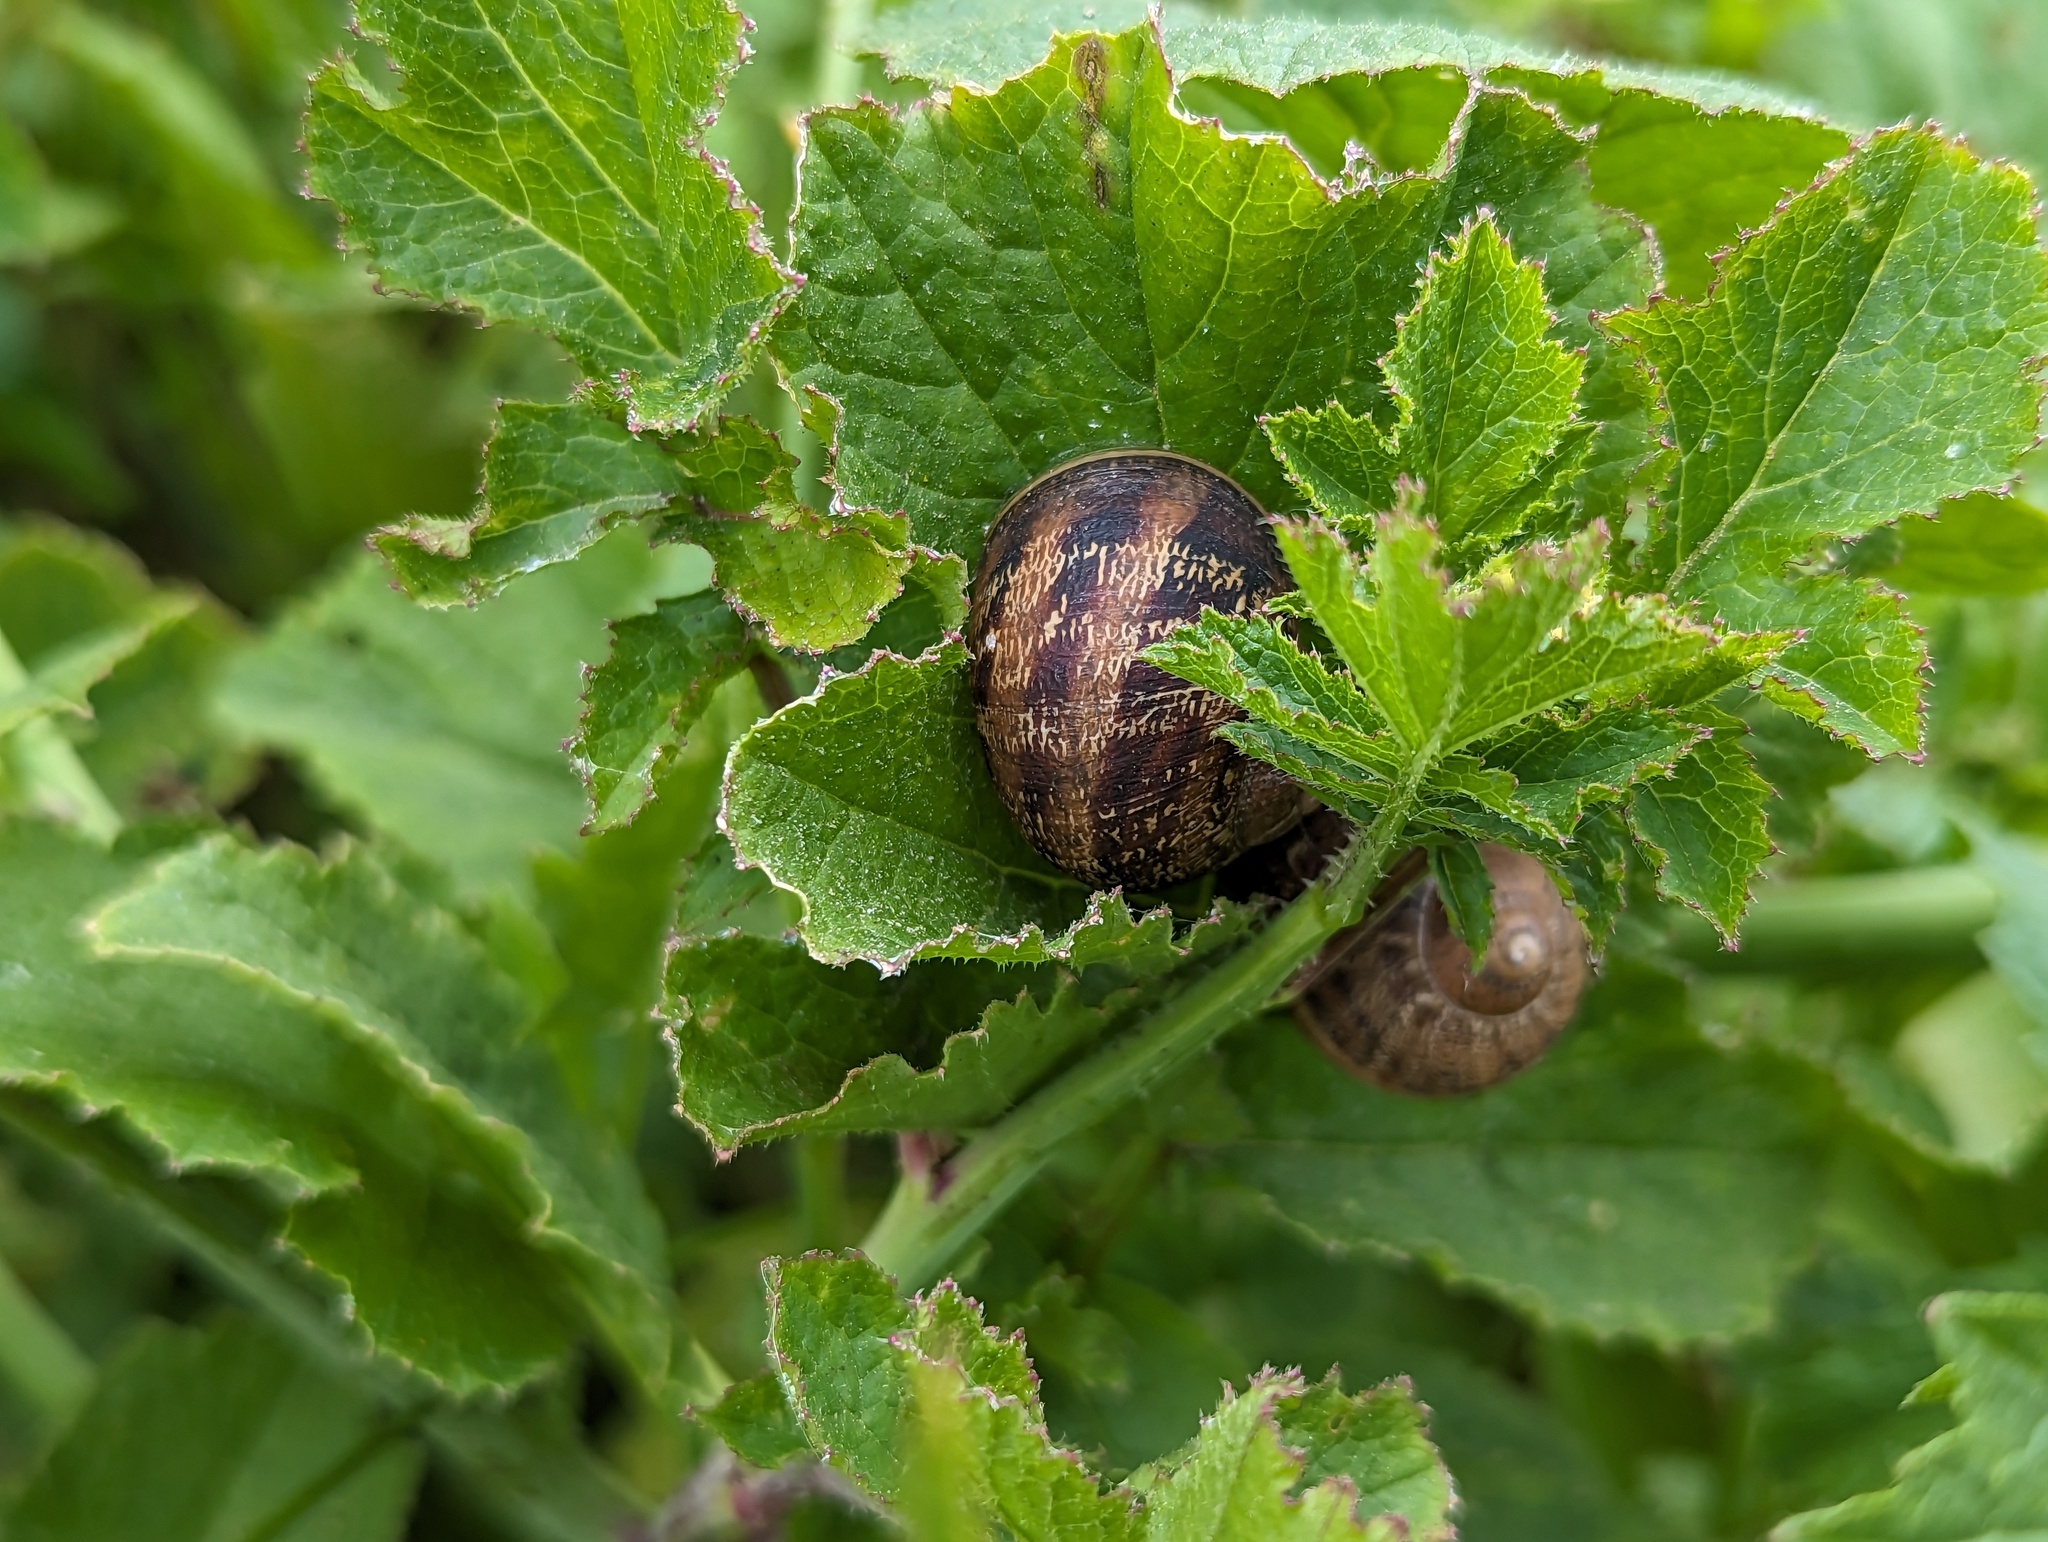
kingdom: Animalia
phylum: Mollusca
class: Gastropoda
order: Stylommatophora
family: Helicidae
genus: Cornu
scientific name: Cornu aspersum
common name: Brown garden snail
